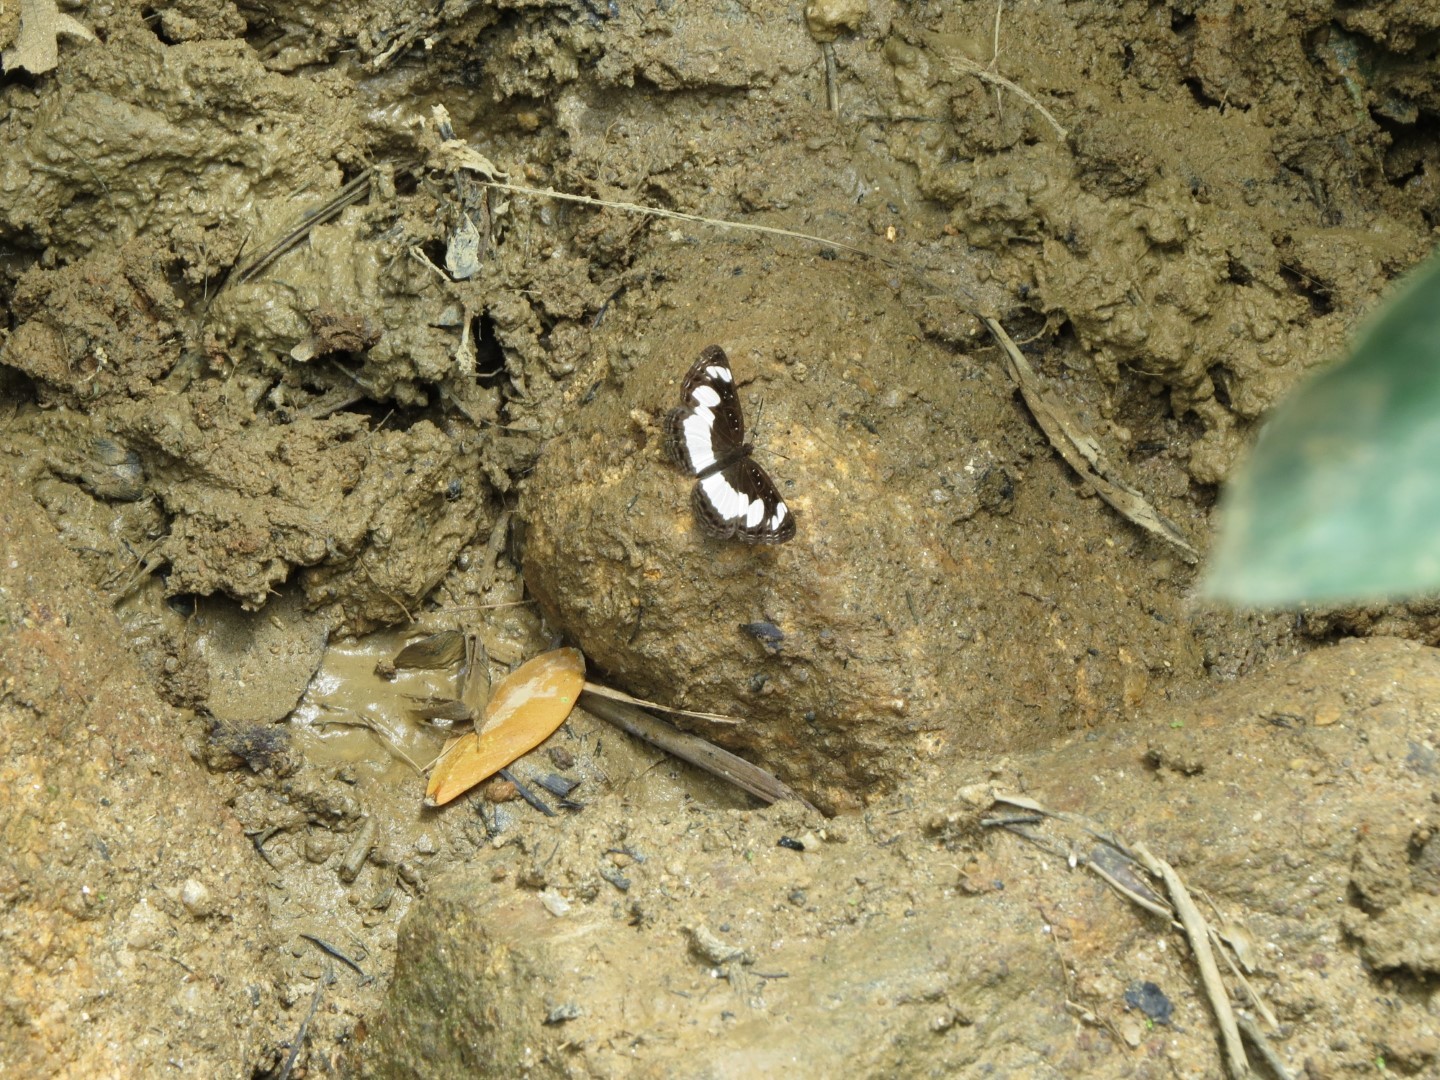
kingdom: Animalia
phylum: Arthropoda
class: Insecta
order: Lepidoptera
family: Nymphalidae
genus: Neptis
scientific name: Neptis saclava
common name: Small spotted sailor
